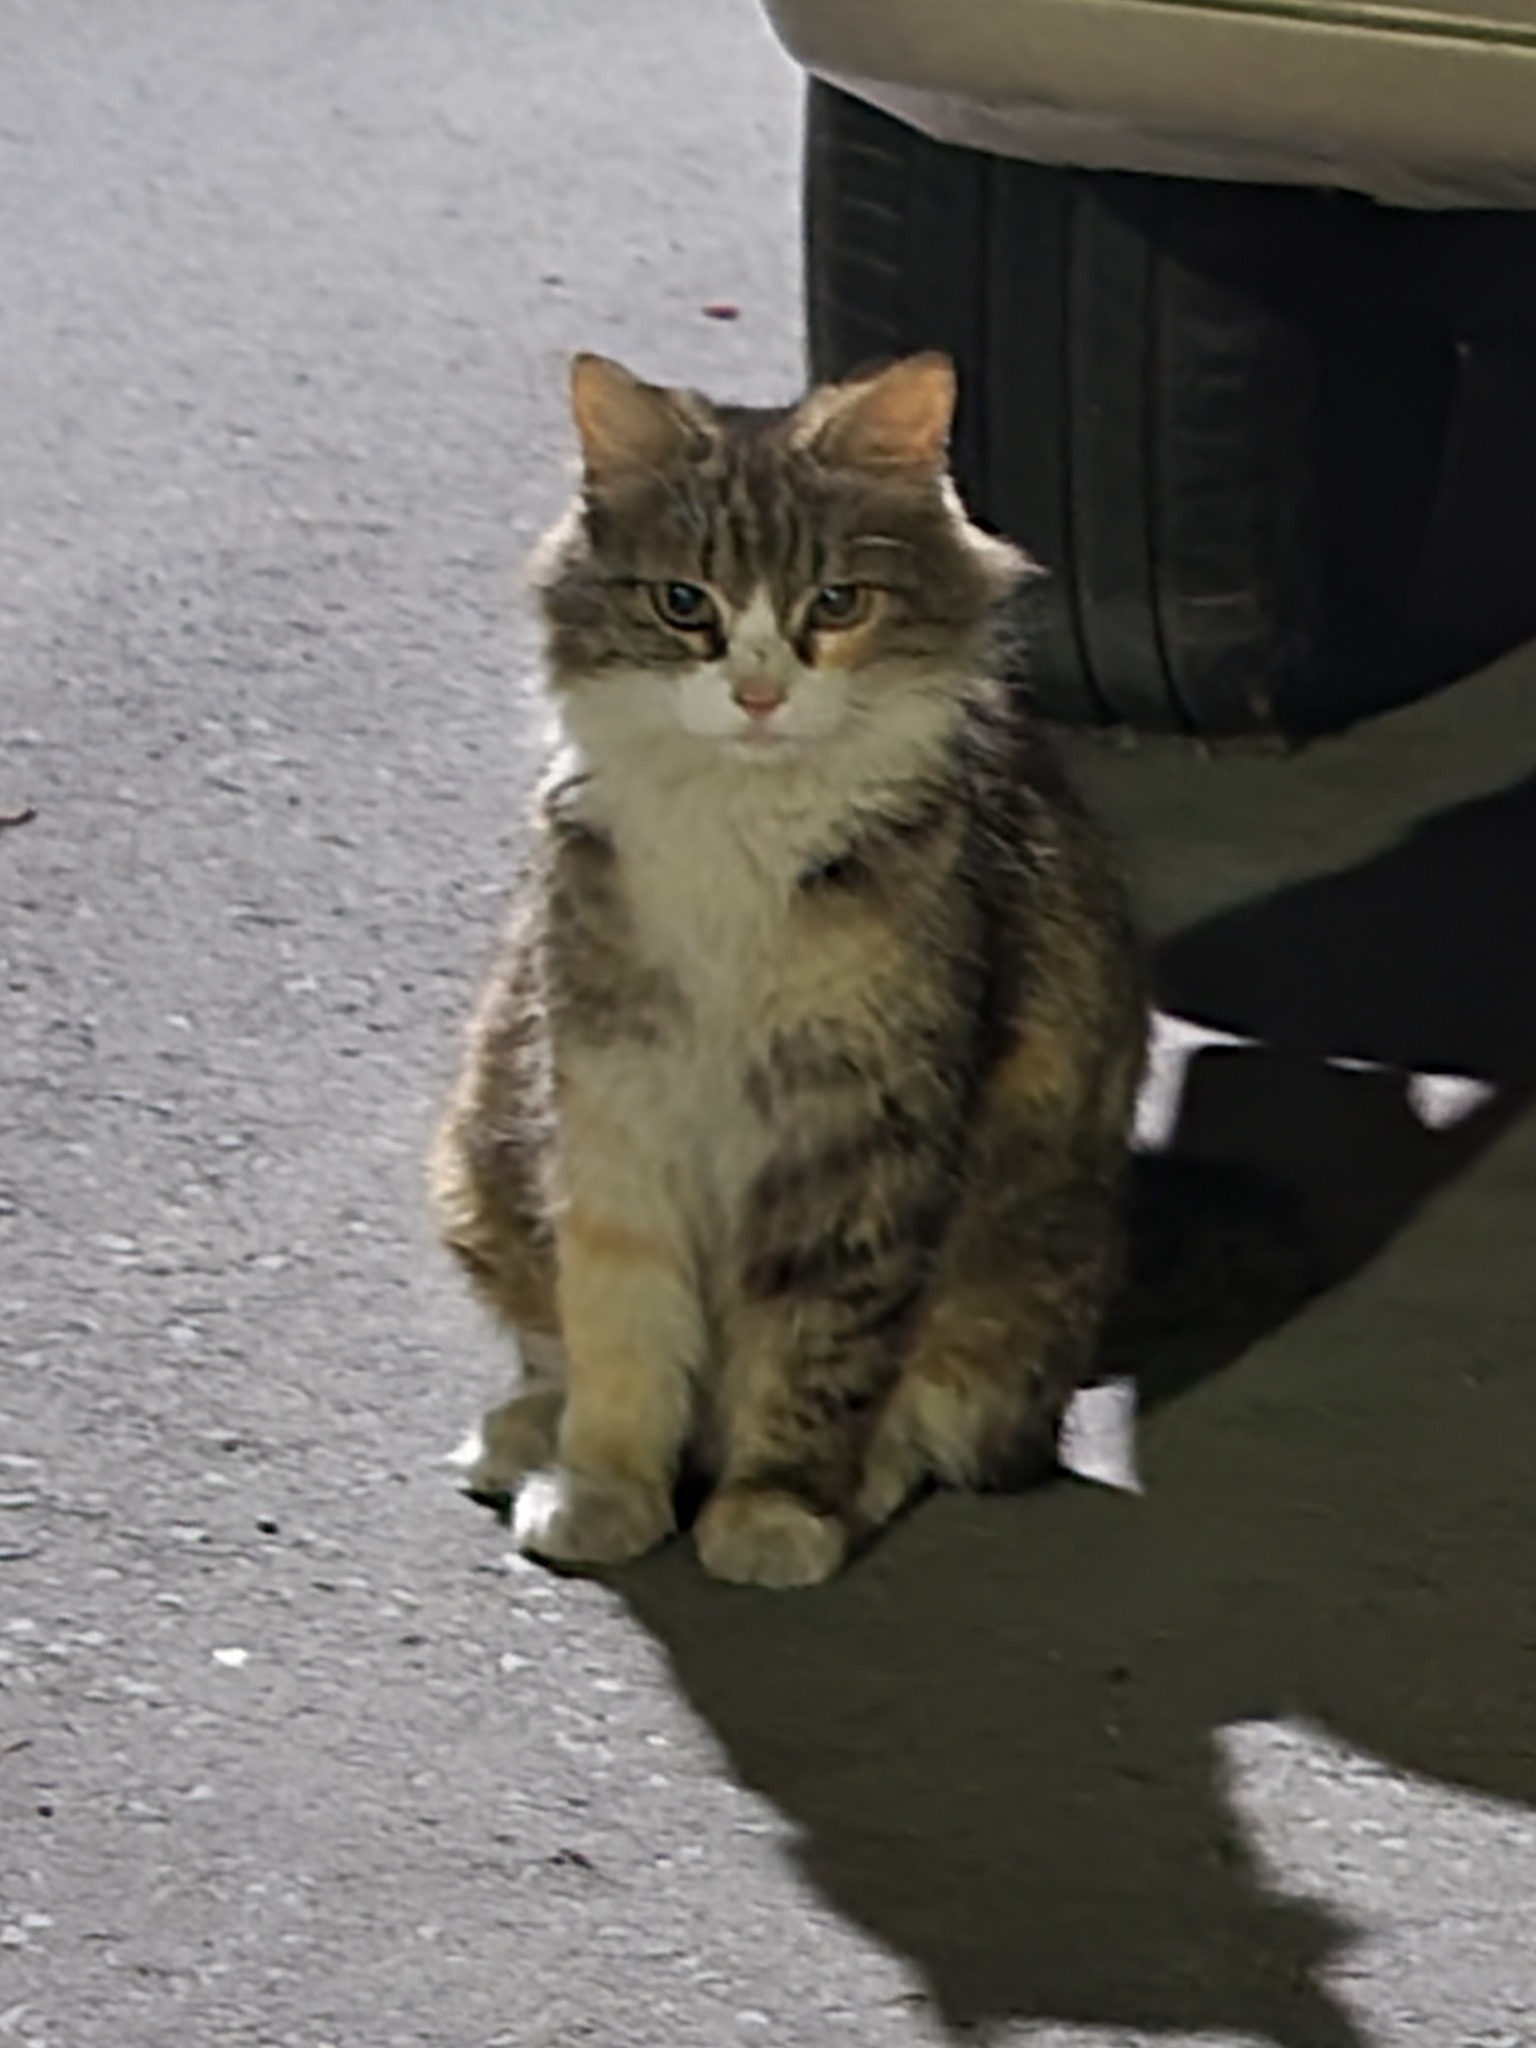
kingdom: Animalia
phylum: Chordata
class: Mammalia
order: Carnivora
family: Felidae
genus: Felis
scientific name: Felis catus
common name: Domestic cat
